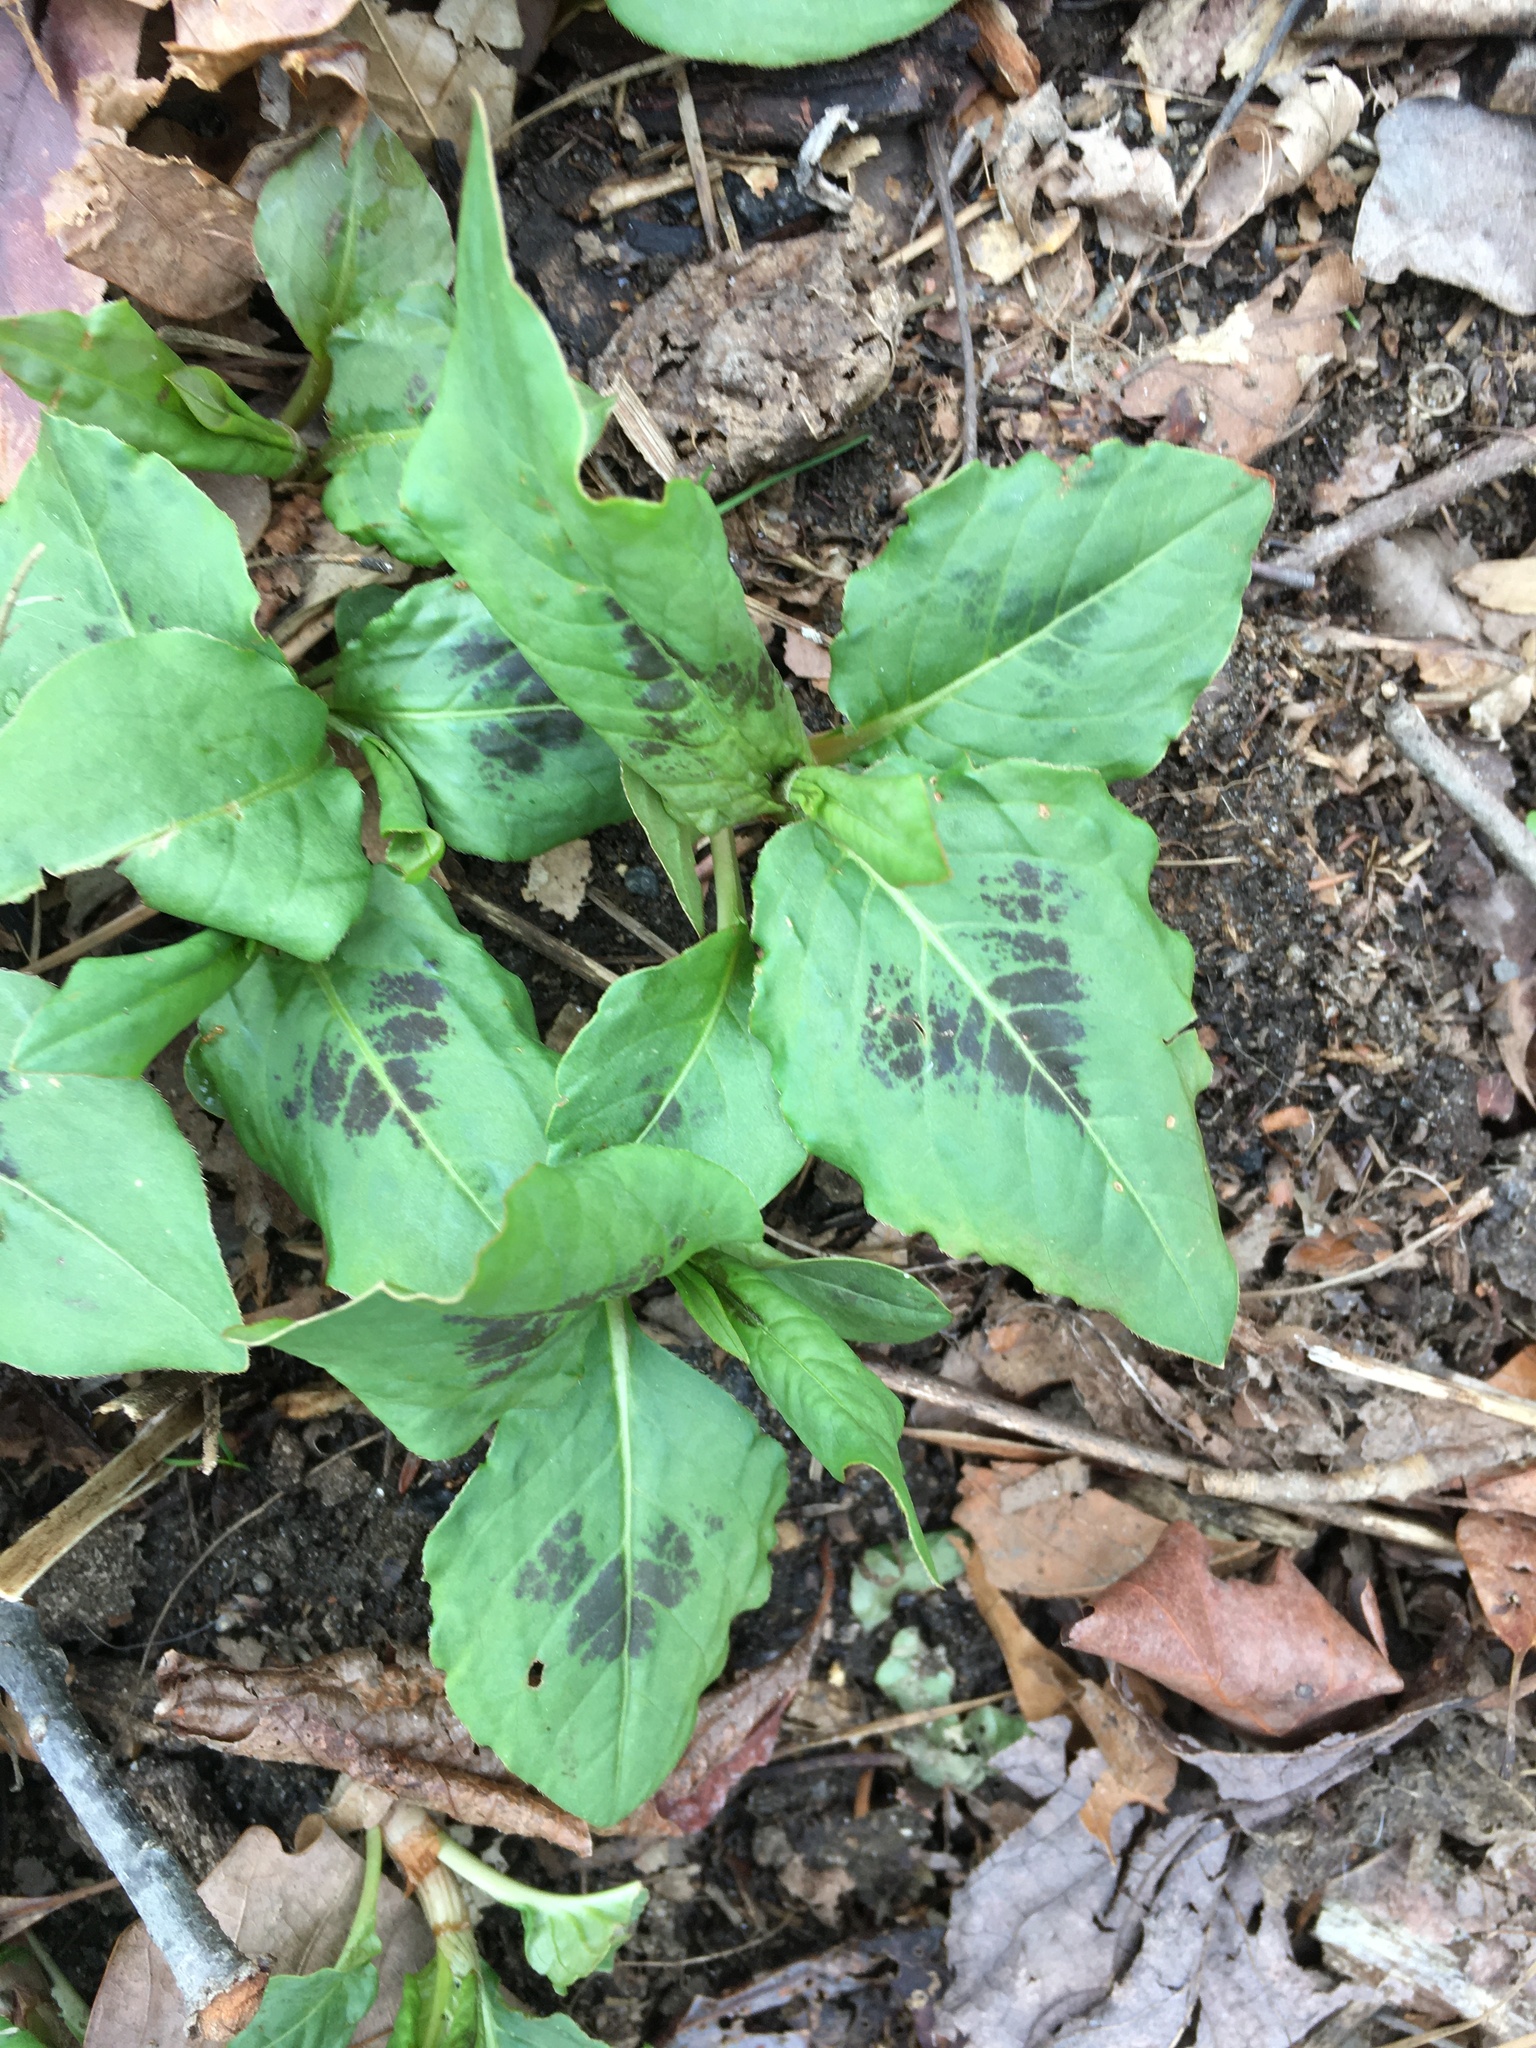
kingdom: Plantae
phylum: Tracheophyta
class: Magnoliopsida
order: Caryophyllales
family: Polygonaceae
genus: Persicaria
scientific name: Persicaria virginiana
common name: Jumpseed
